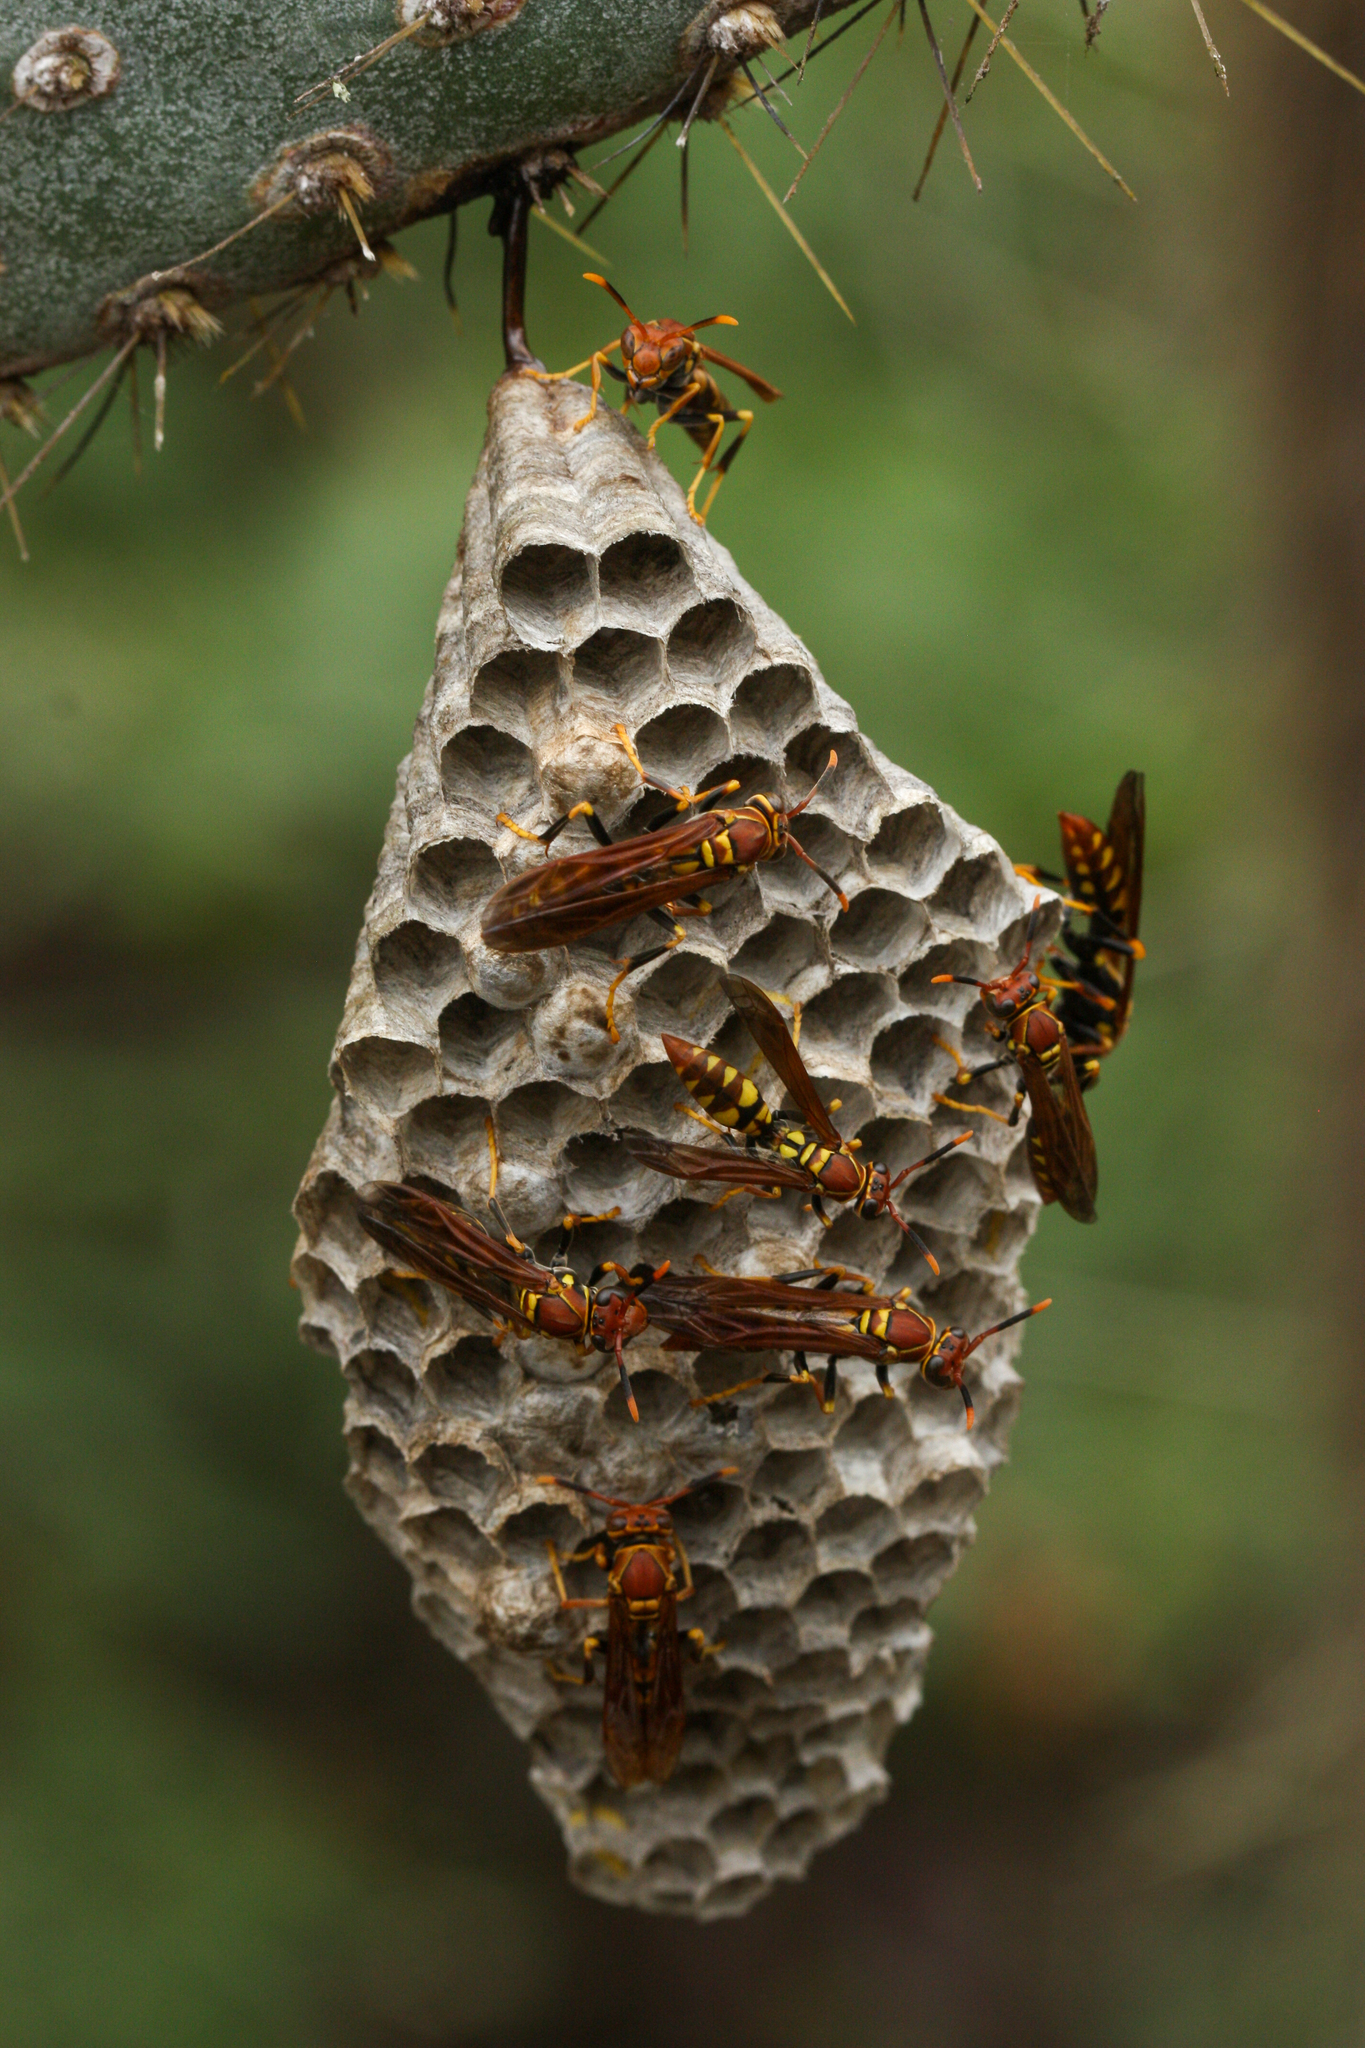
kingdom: Animalia
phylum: Arthropoda
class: Insecta
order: Hymenoptera
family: Eumenidae
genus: Polistes
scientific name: Polistes versicolor
